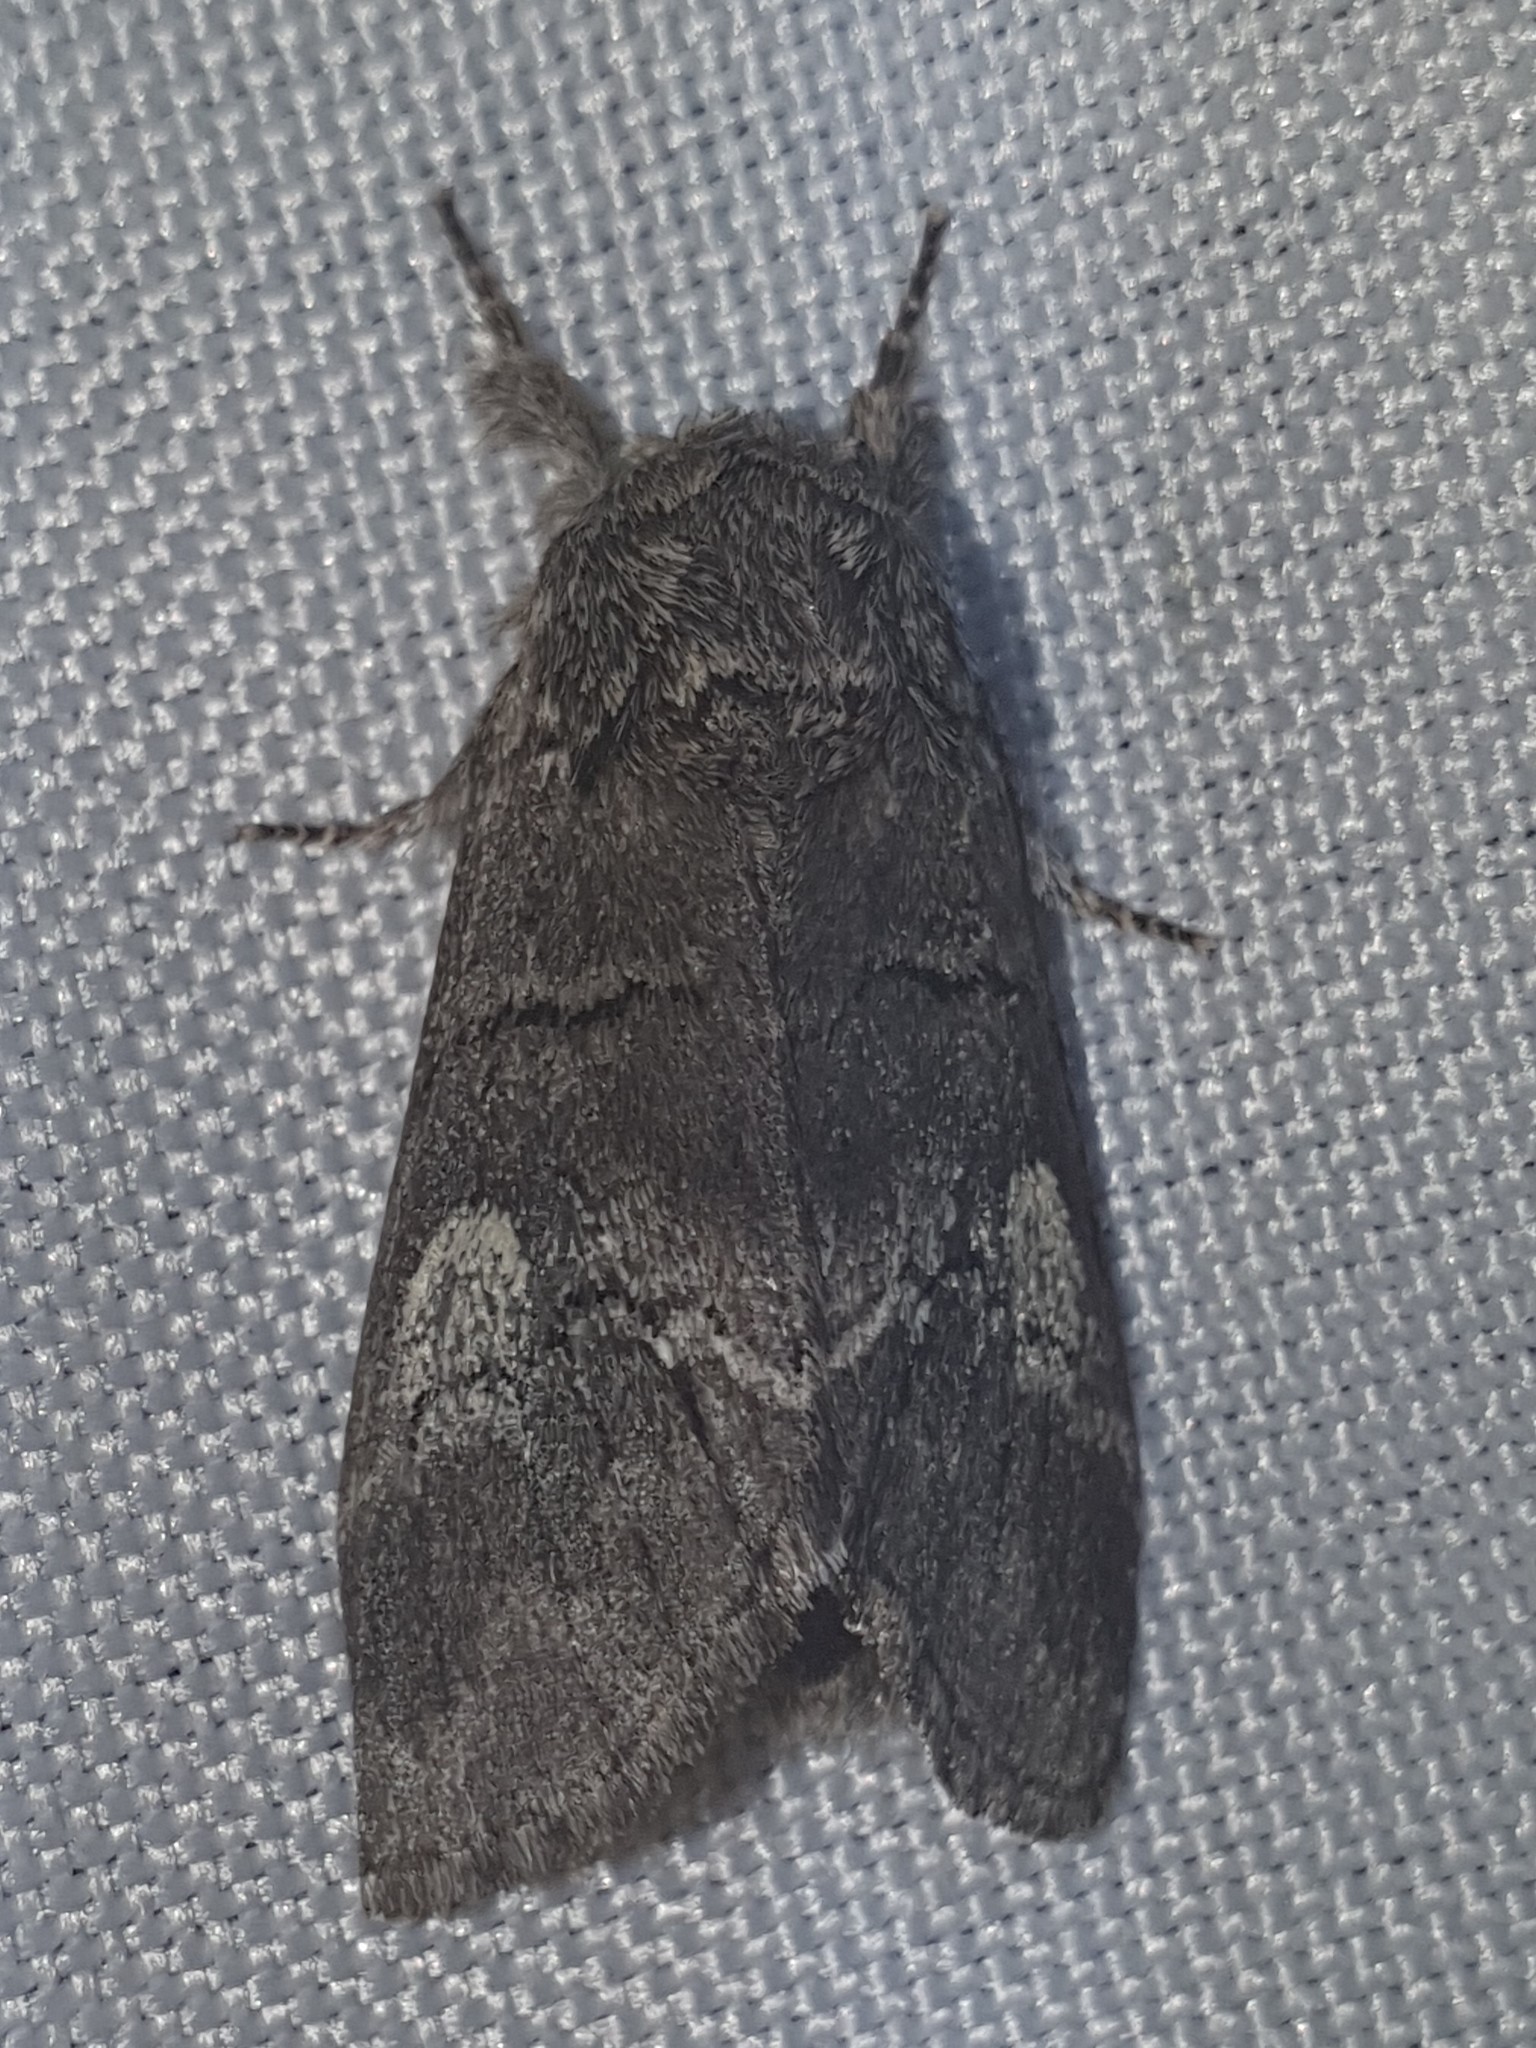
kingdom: Animalia
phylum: Arthropoda
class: Insecta
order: Lepidoptera
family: Notodontidae
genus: Drymonia
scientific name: Drymonia querna
